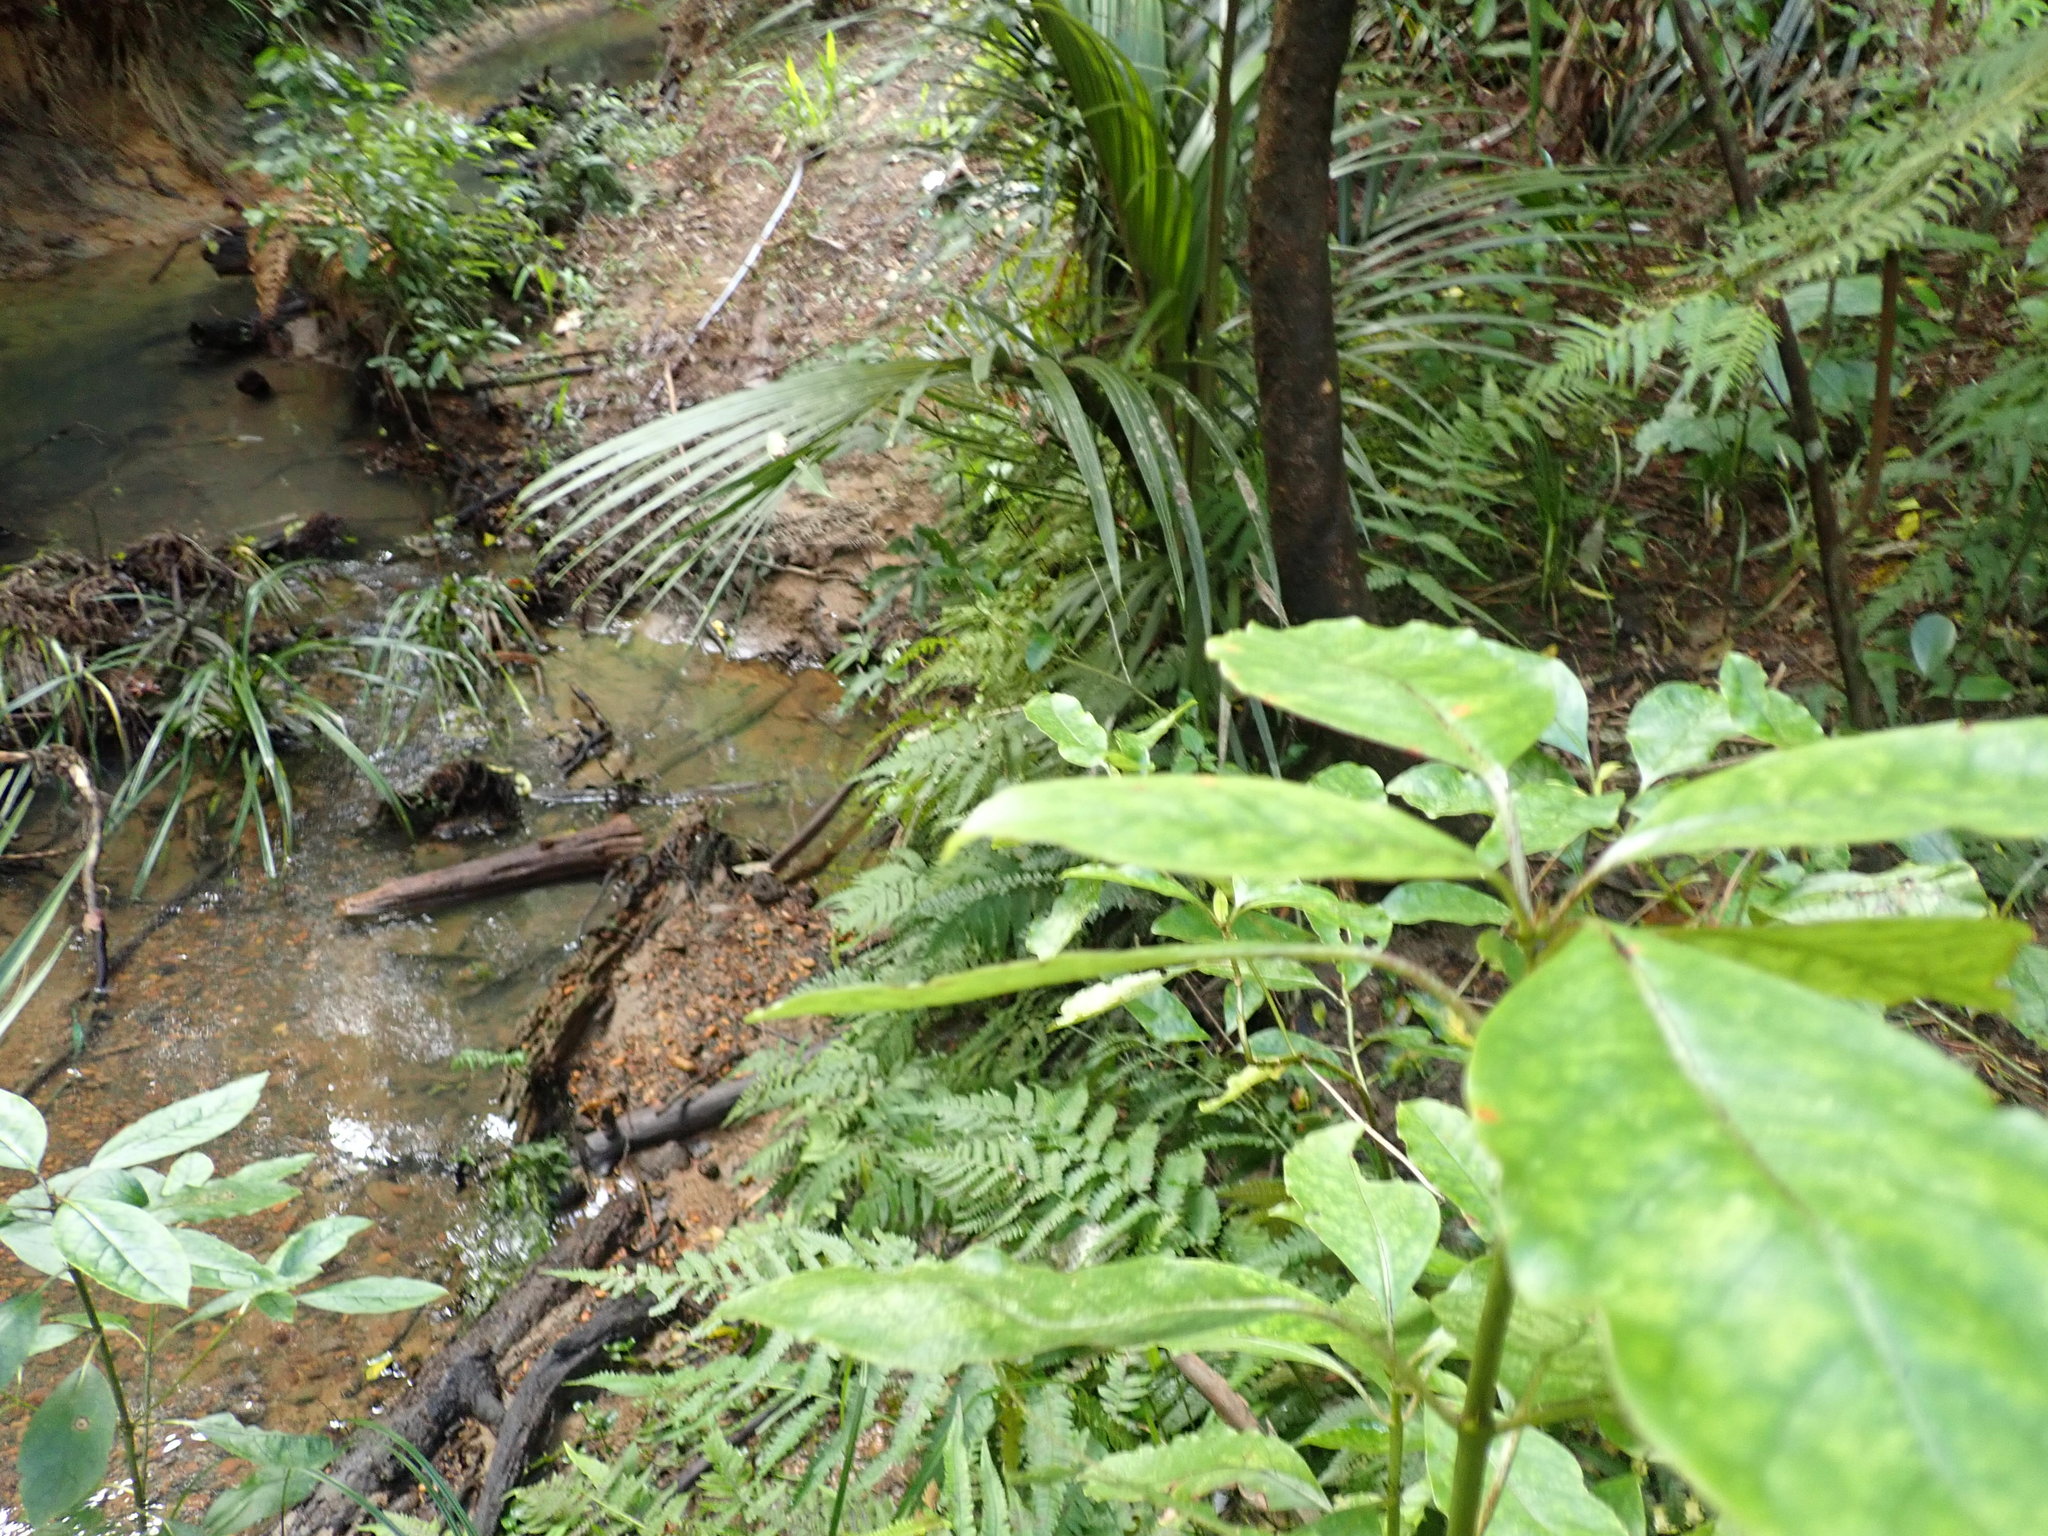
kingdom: Plantae
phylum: Tracheophyta
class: Magnoliopsida
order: Gentianales
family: Rubiaceae
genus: Coprosma
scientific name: Coprosma autumnalis
